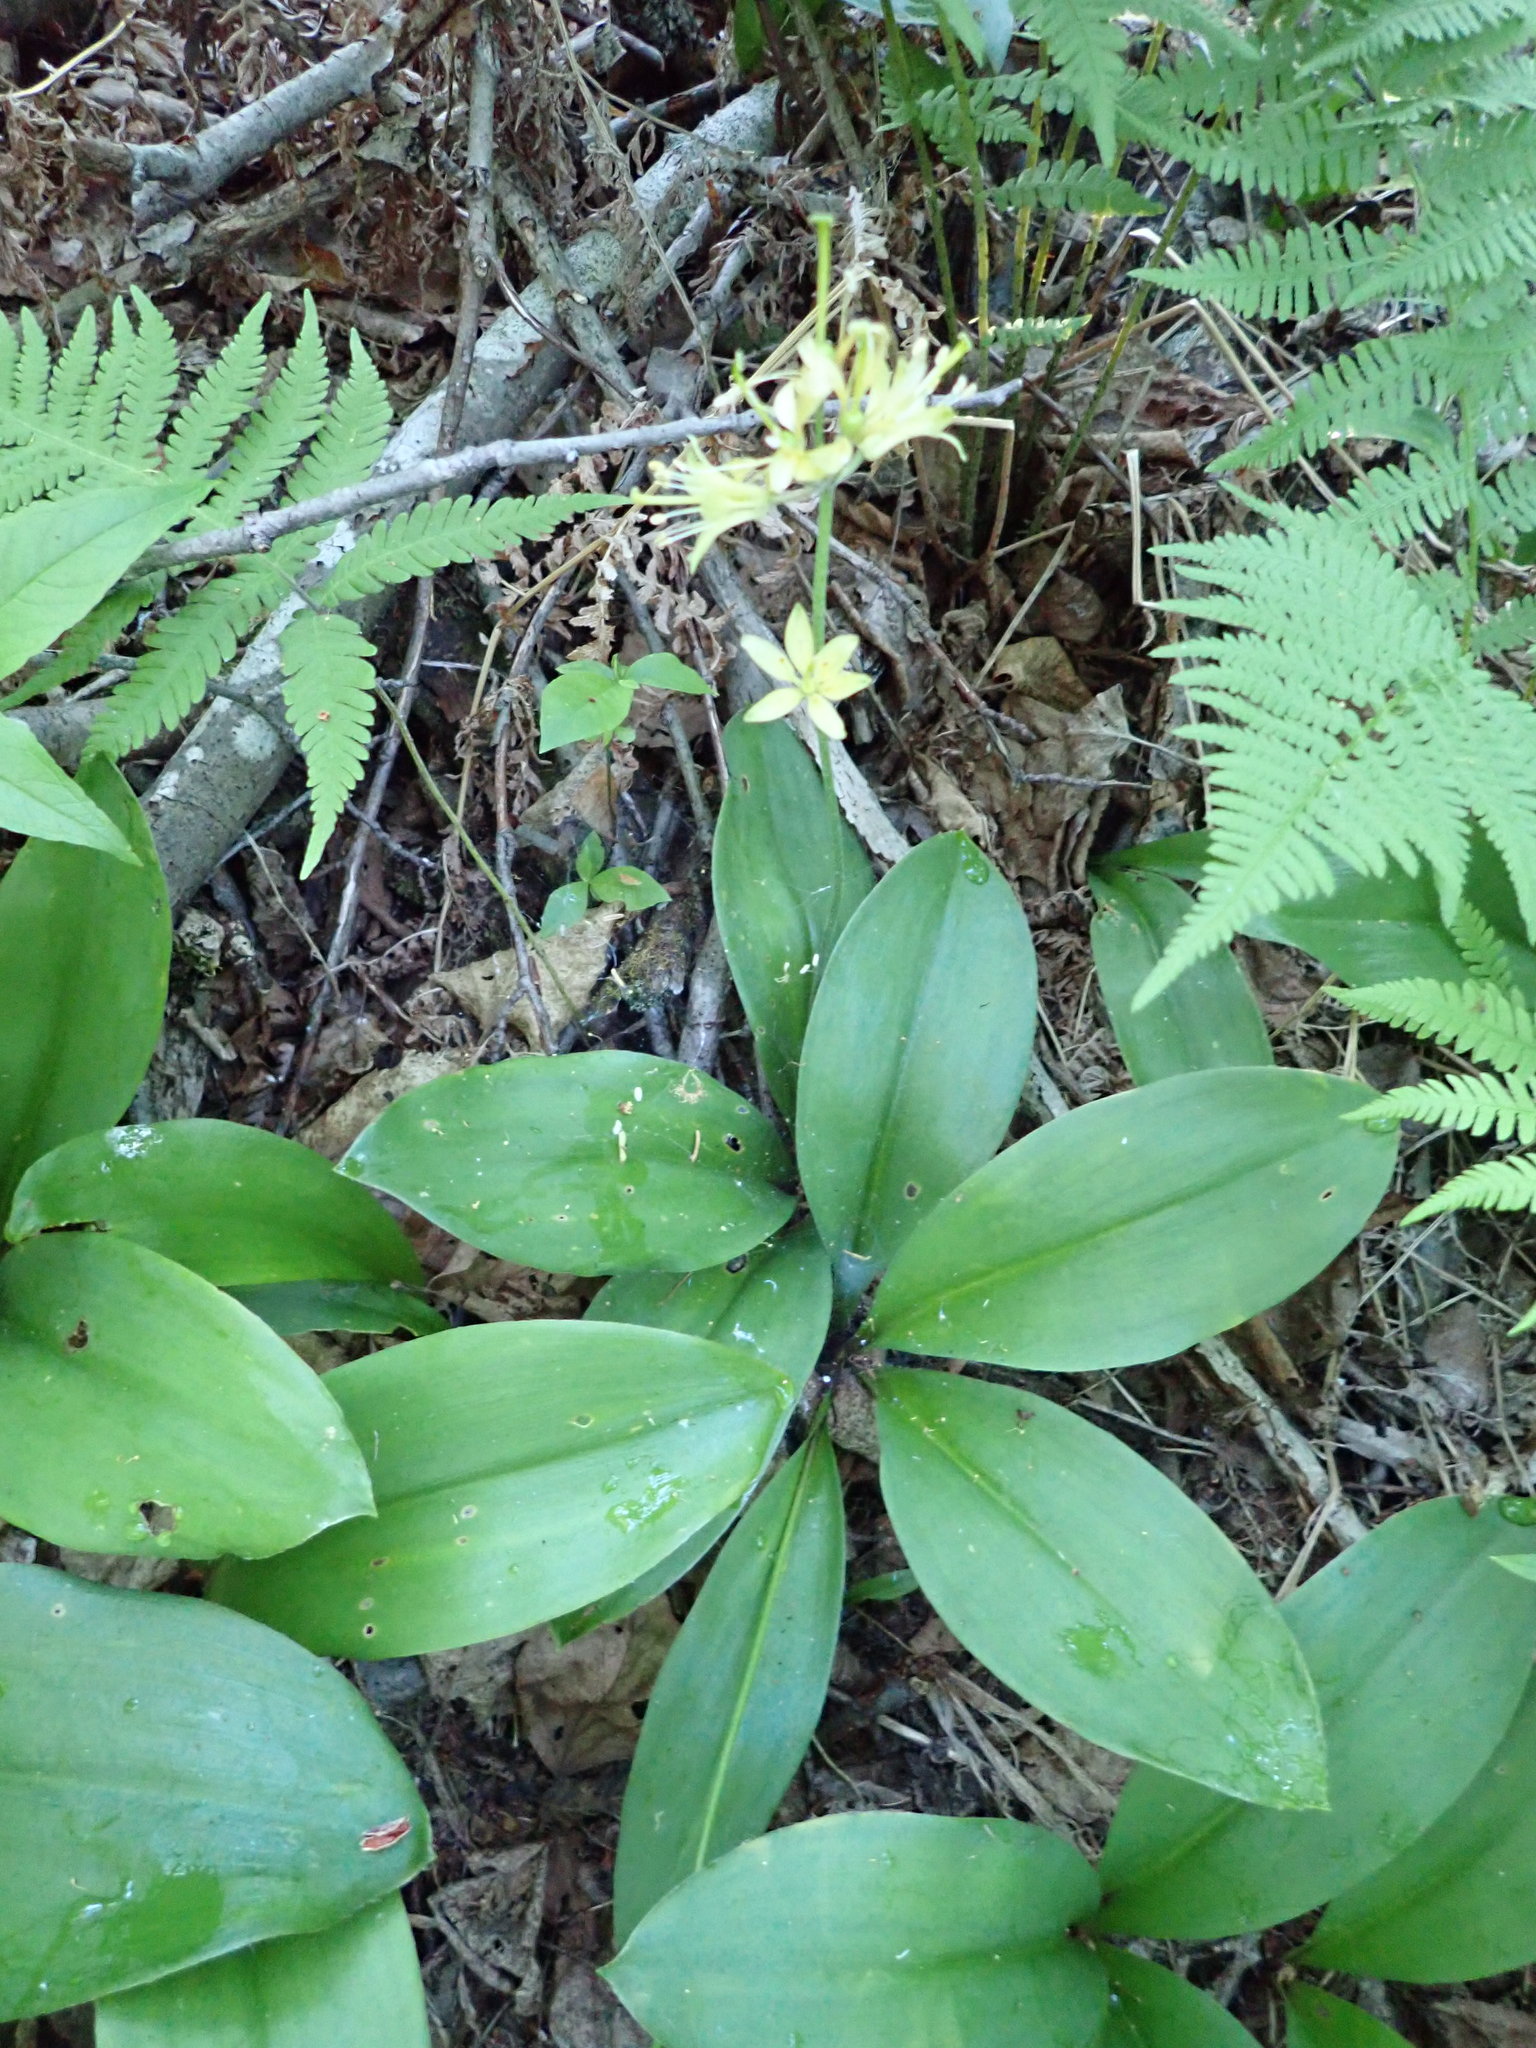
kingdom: Plantae
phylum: Tracheophyta
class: Liliopsida
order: Liliales
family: Liliaceae
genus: Clintonia
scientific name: Clintonia borealis
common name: Yellow clintonia
